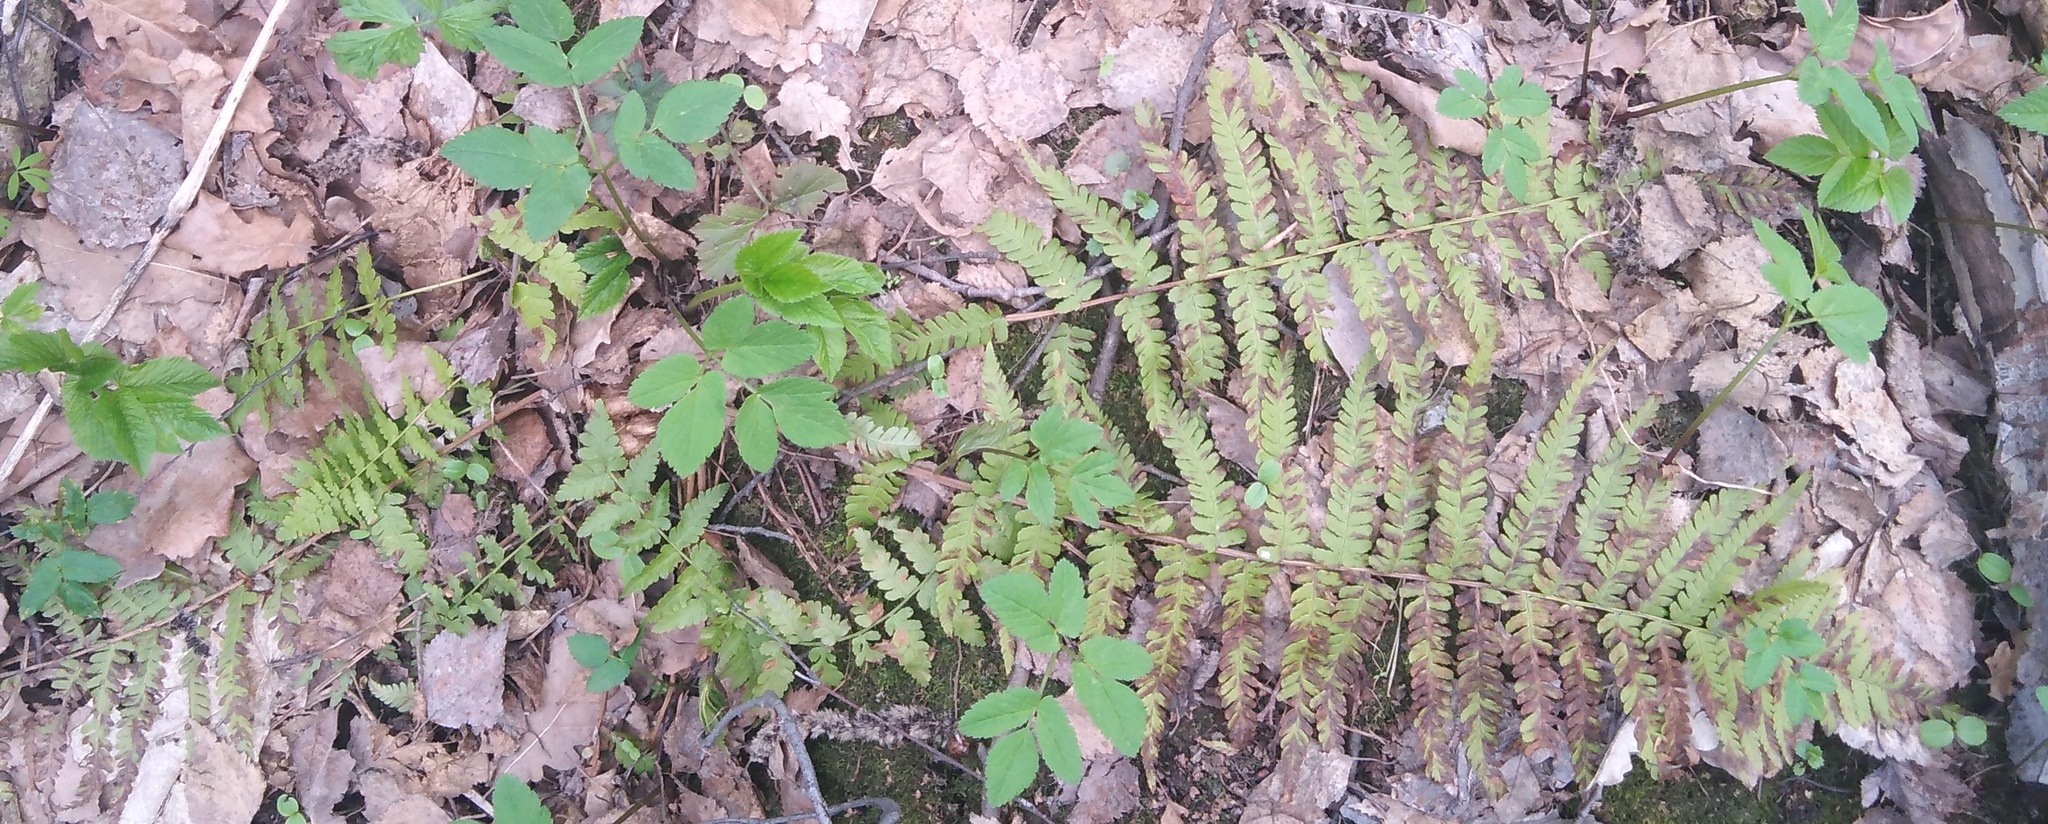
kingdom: Plantae
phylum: Tracheophyta
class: Polypodiopsida
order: Polypodiales
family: Dryopteridaceae
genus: Dryopteris
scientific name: Dryopteris filix-mas
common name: Male fern
